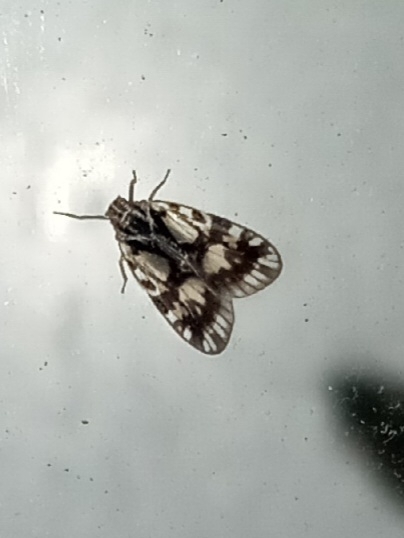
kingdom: Animalia
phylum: Arthropoda
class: Insecta
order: Hemiptera
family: Cixiidae
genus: Bothriocera
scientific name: Bothriocera cognita
